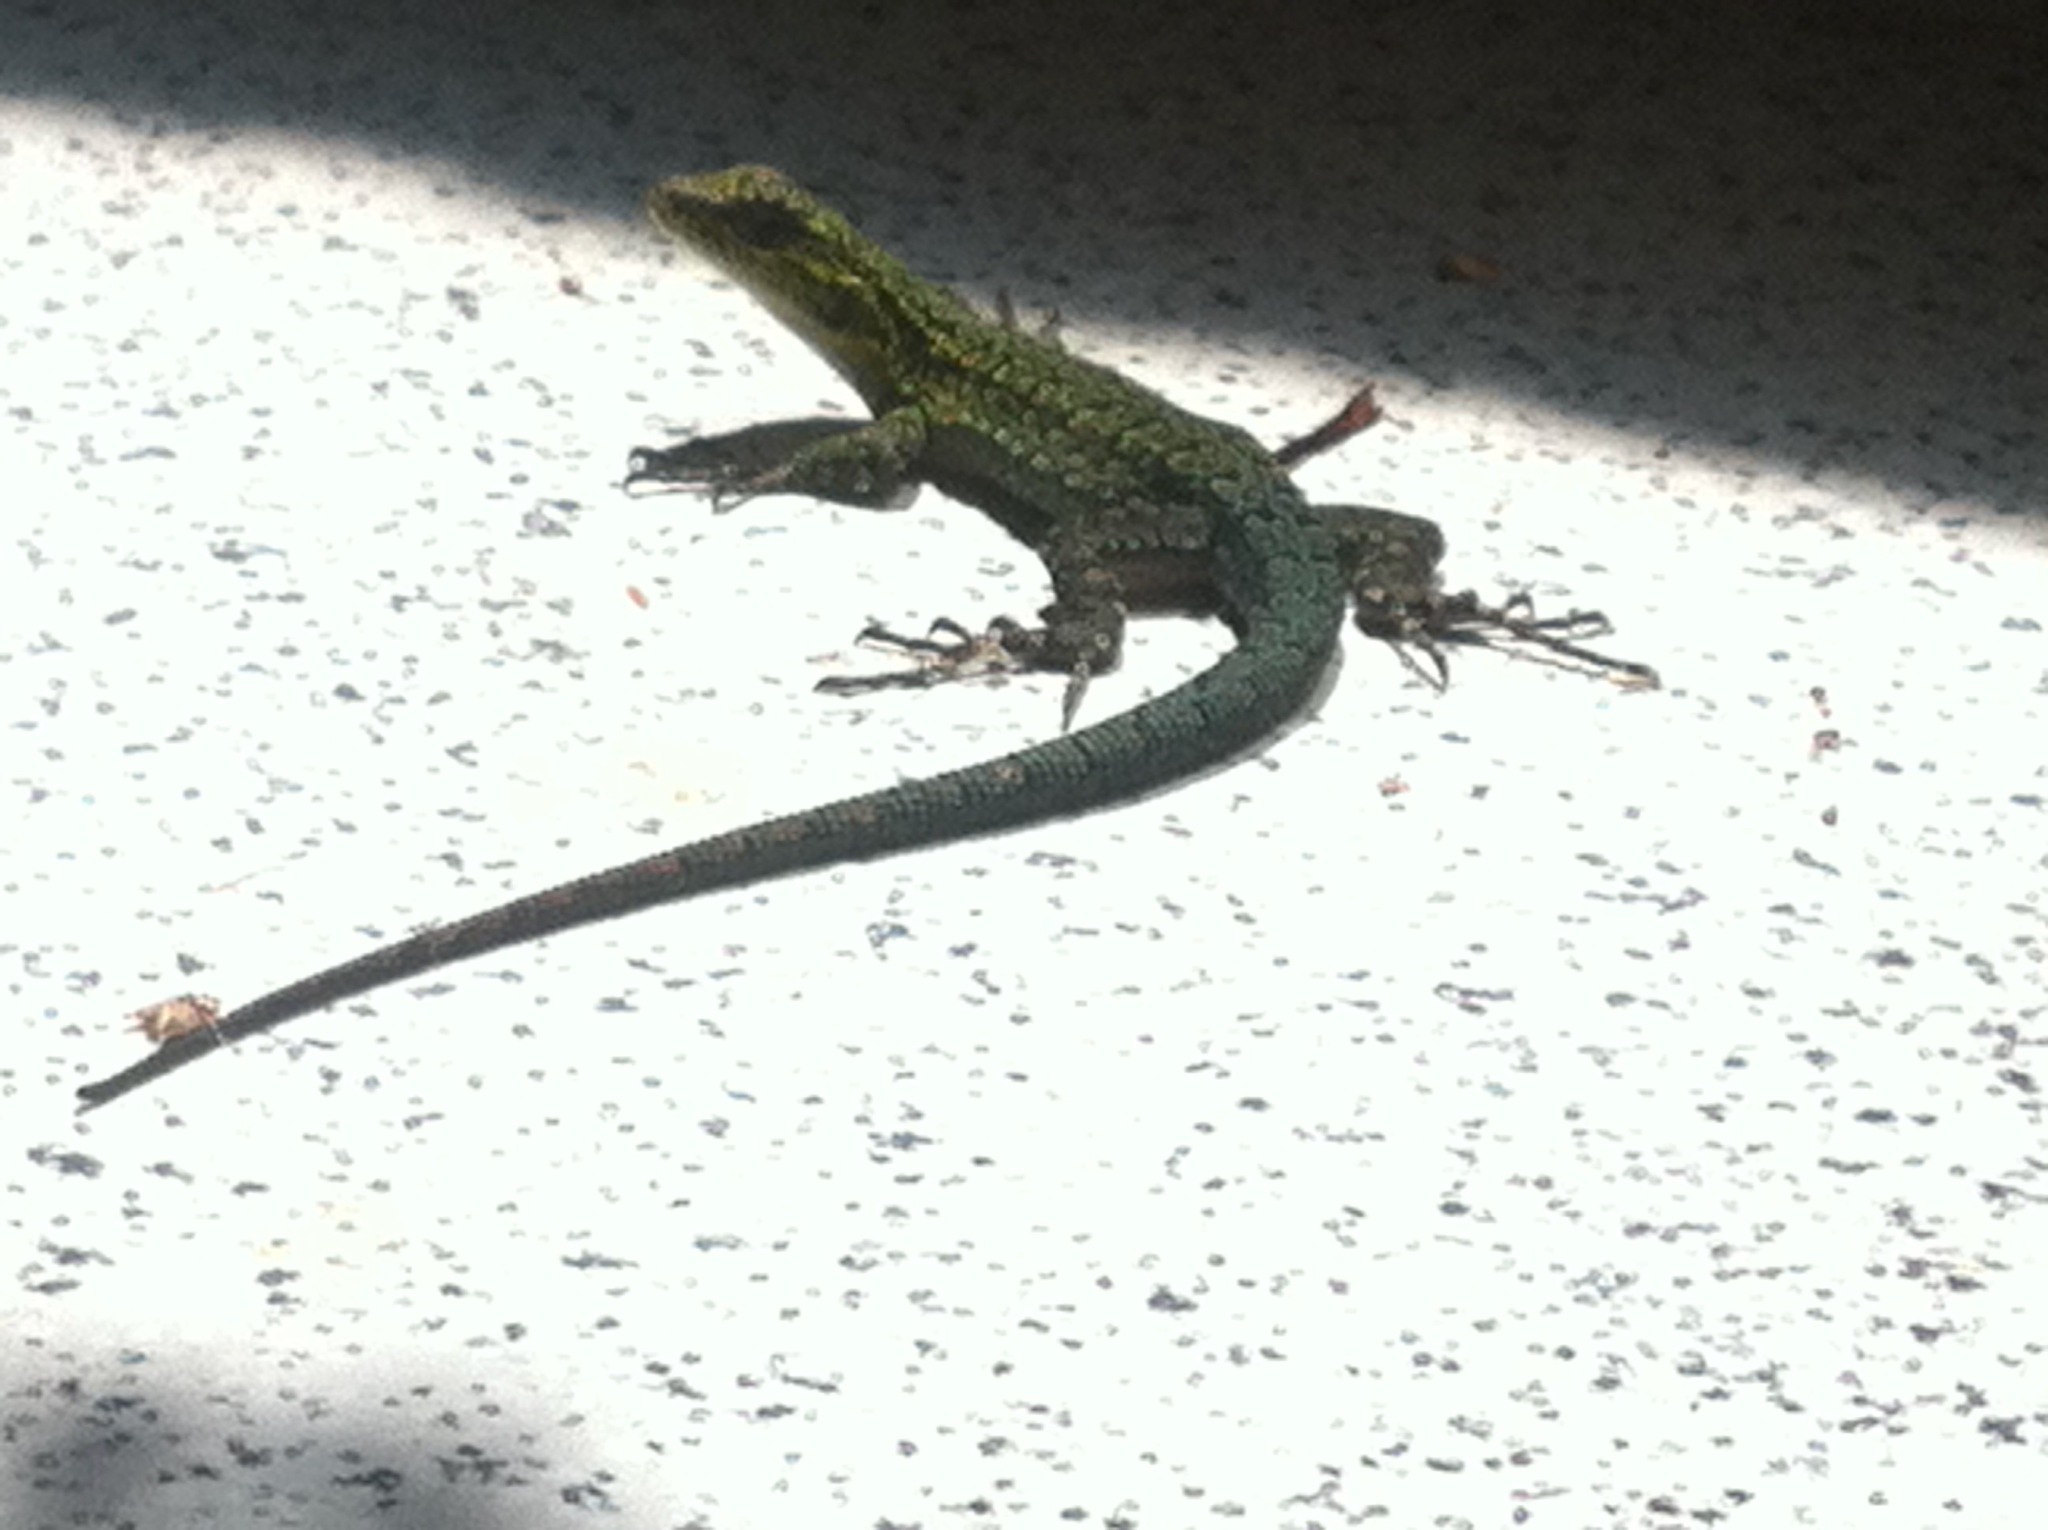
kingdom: Animalia
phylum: Chordata
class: Squamata
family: Liolaemidae
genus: Liolaemus
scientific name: Liolaemus tenuis
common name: Thin tree iguana
